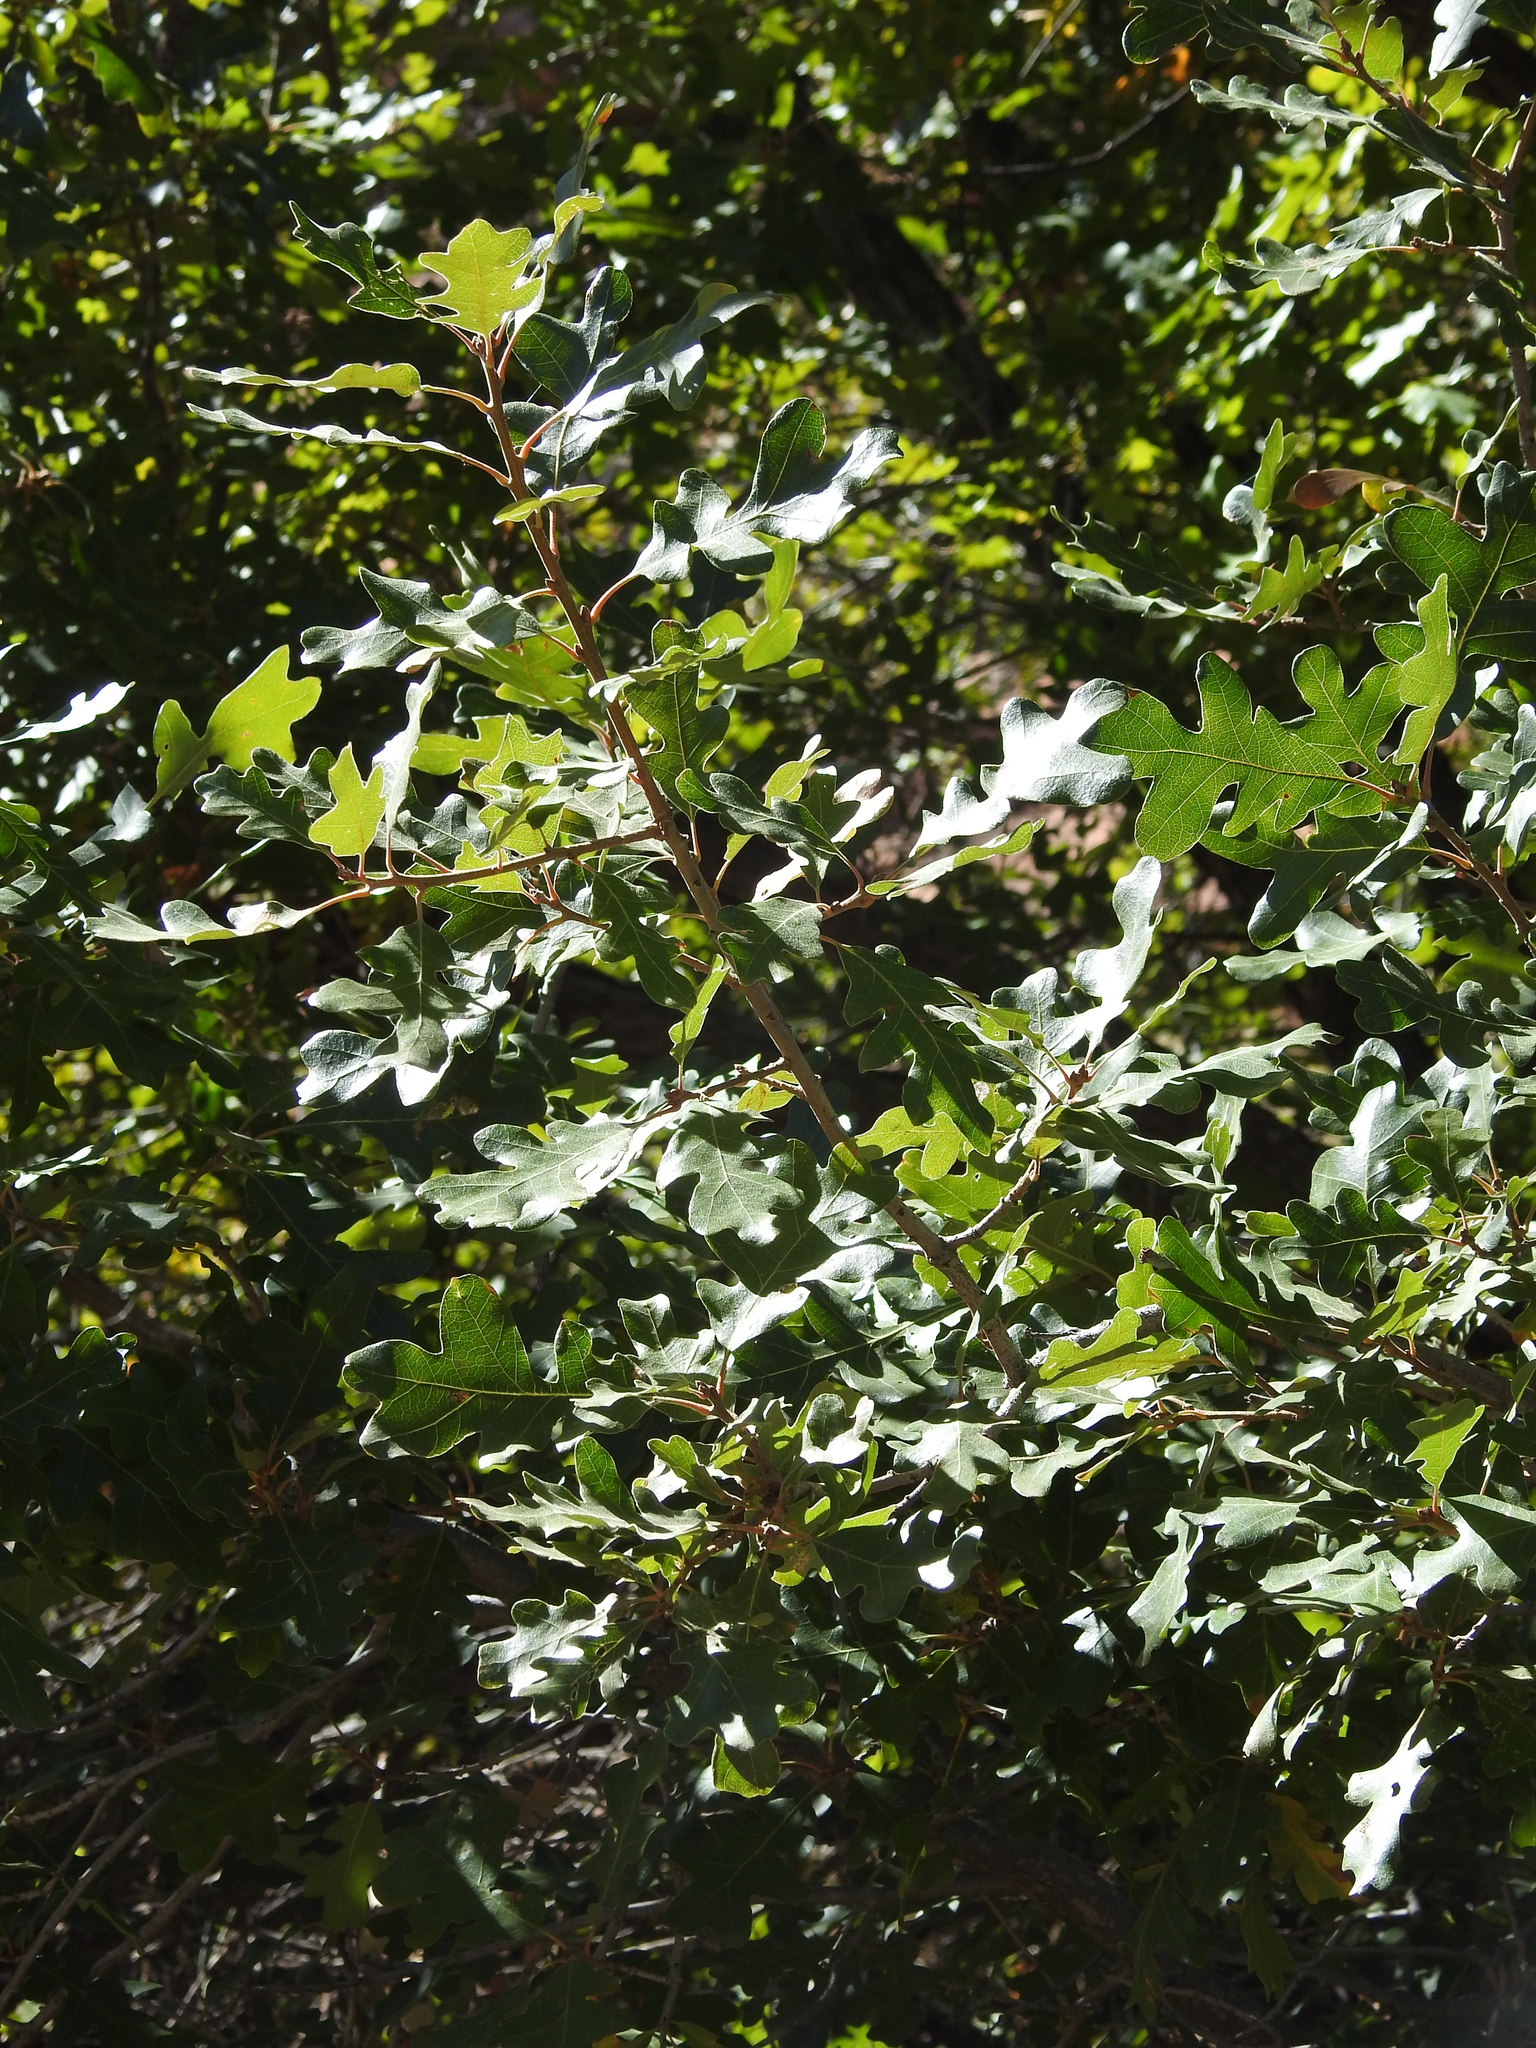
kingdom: Plantae
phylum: Tracheophyta
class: Magnoliopsida
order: Fagales
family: Fagaceae
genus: Quercus
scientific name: Quercus gambelii
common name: Gambel oak
